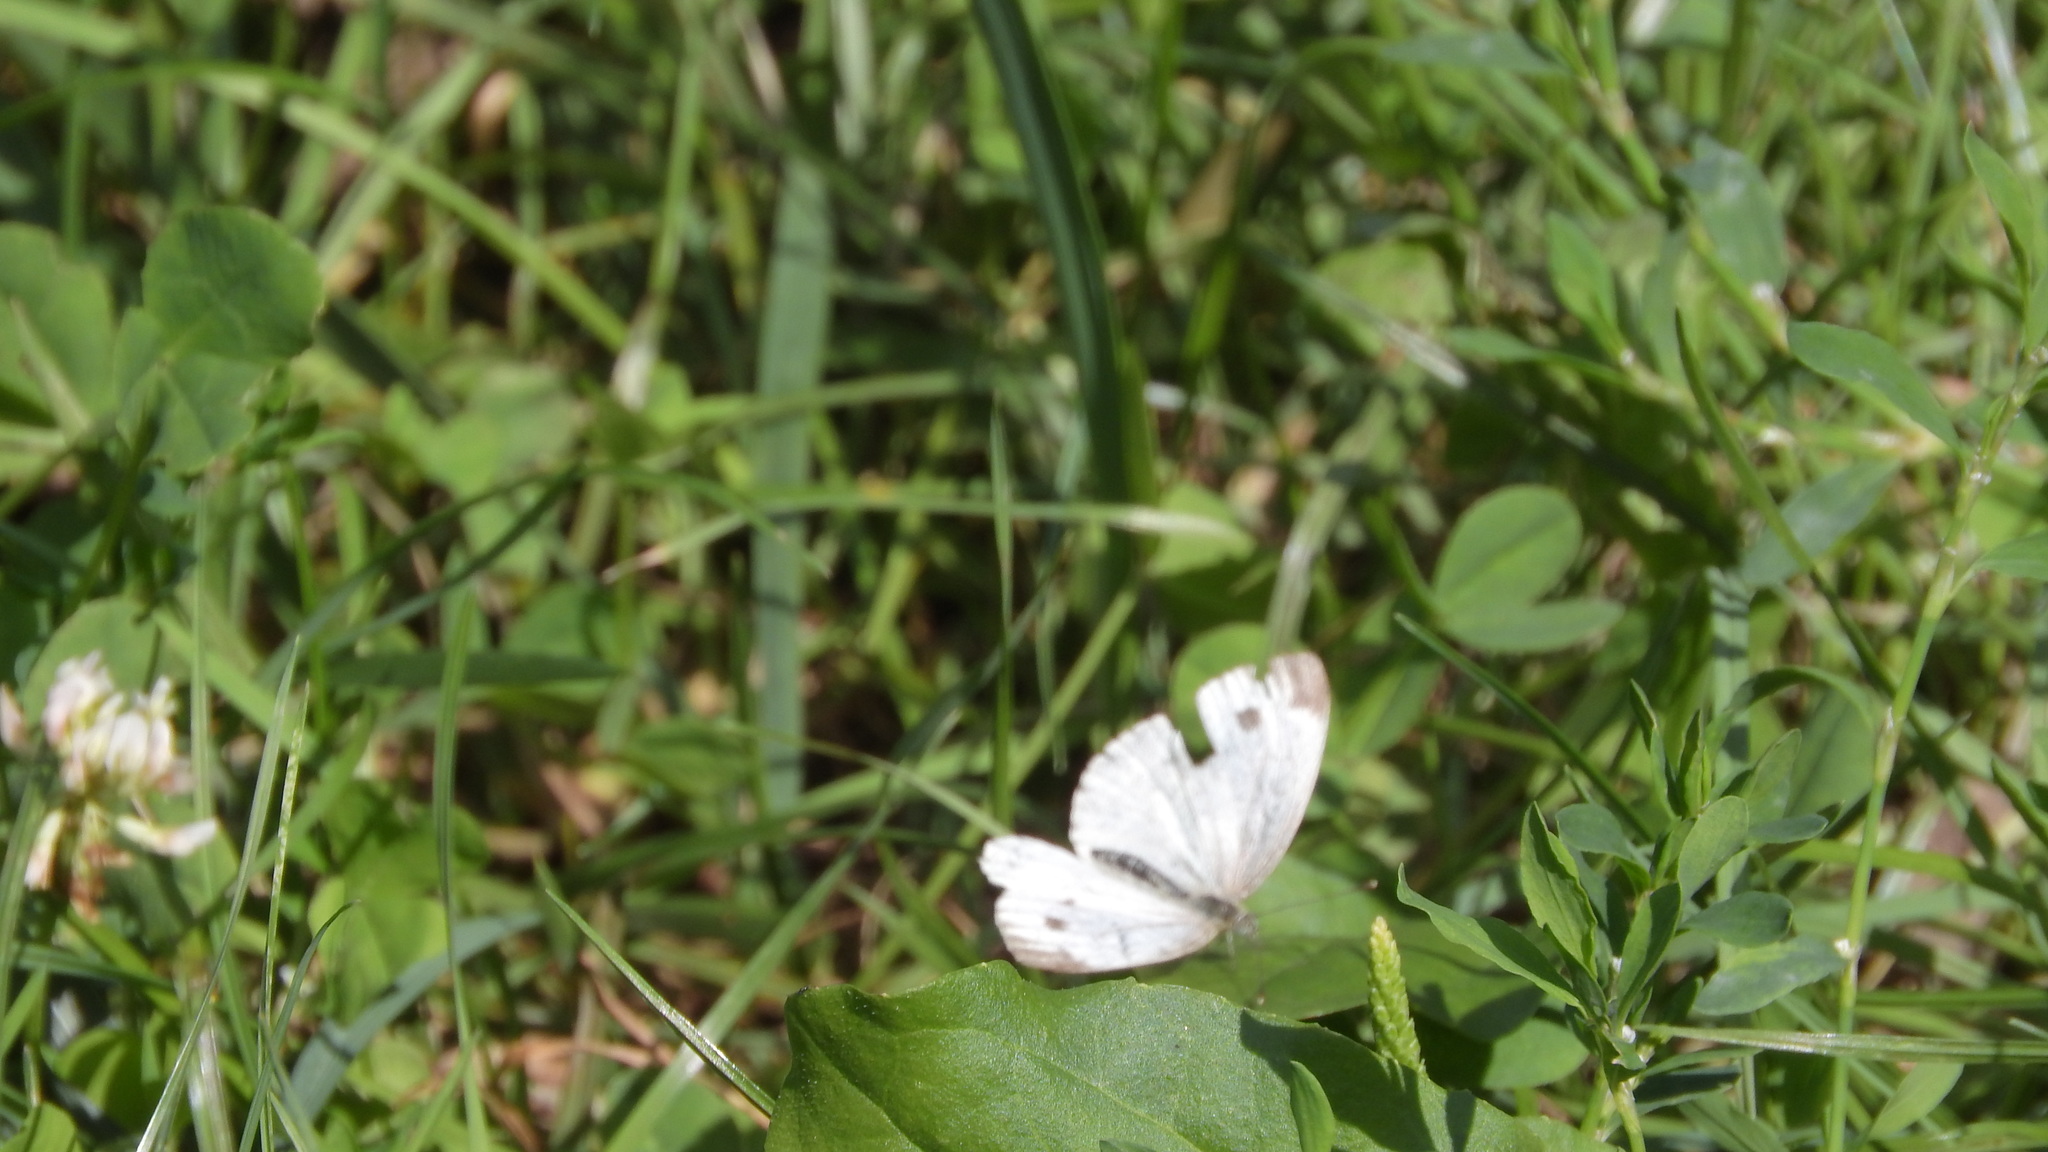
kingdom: Animalia
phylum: Arthropoda
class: Insecta
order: Lepidoptera
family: Pieridae
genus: Pieris
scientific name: Pieris napi
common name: Green-veined white
